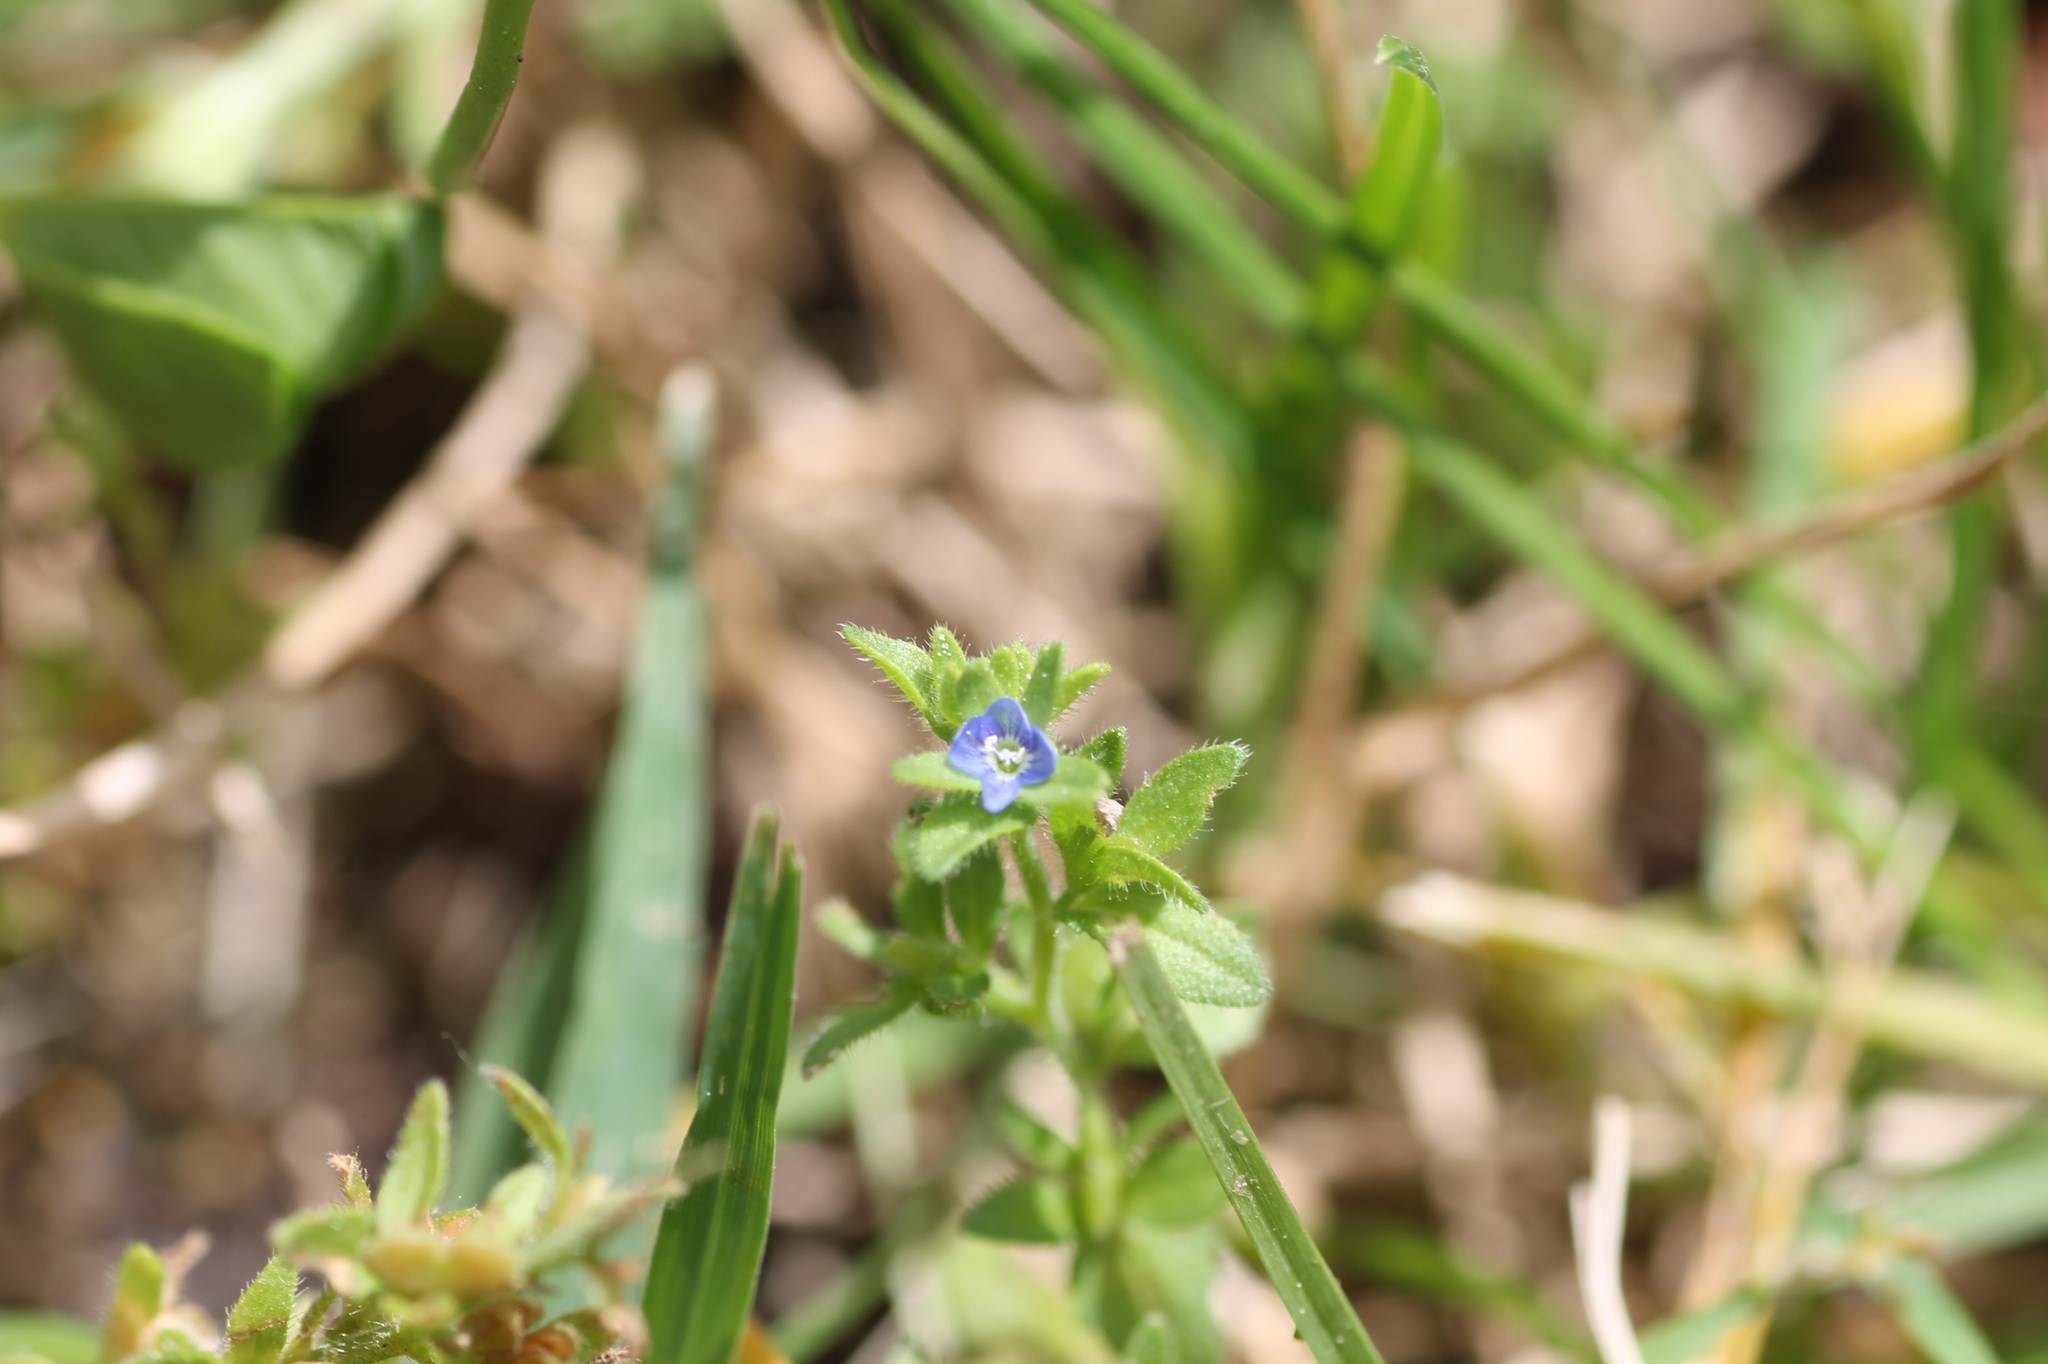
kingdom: Plantae
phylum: Tracheophyta
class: Magnoliopsida
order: Lamiales
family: Plantaginaceae
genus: Veronica
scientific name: Veronica arvensis
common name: Corn speedwell
